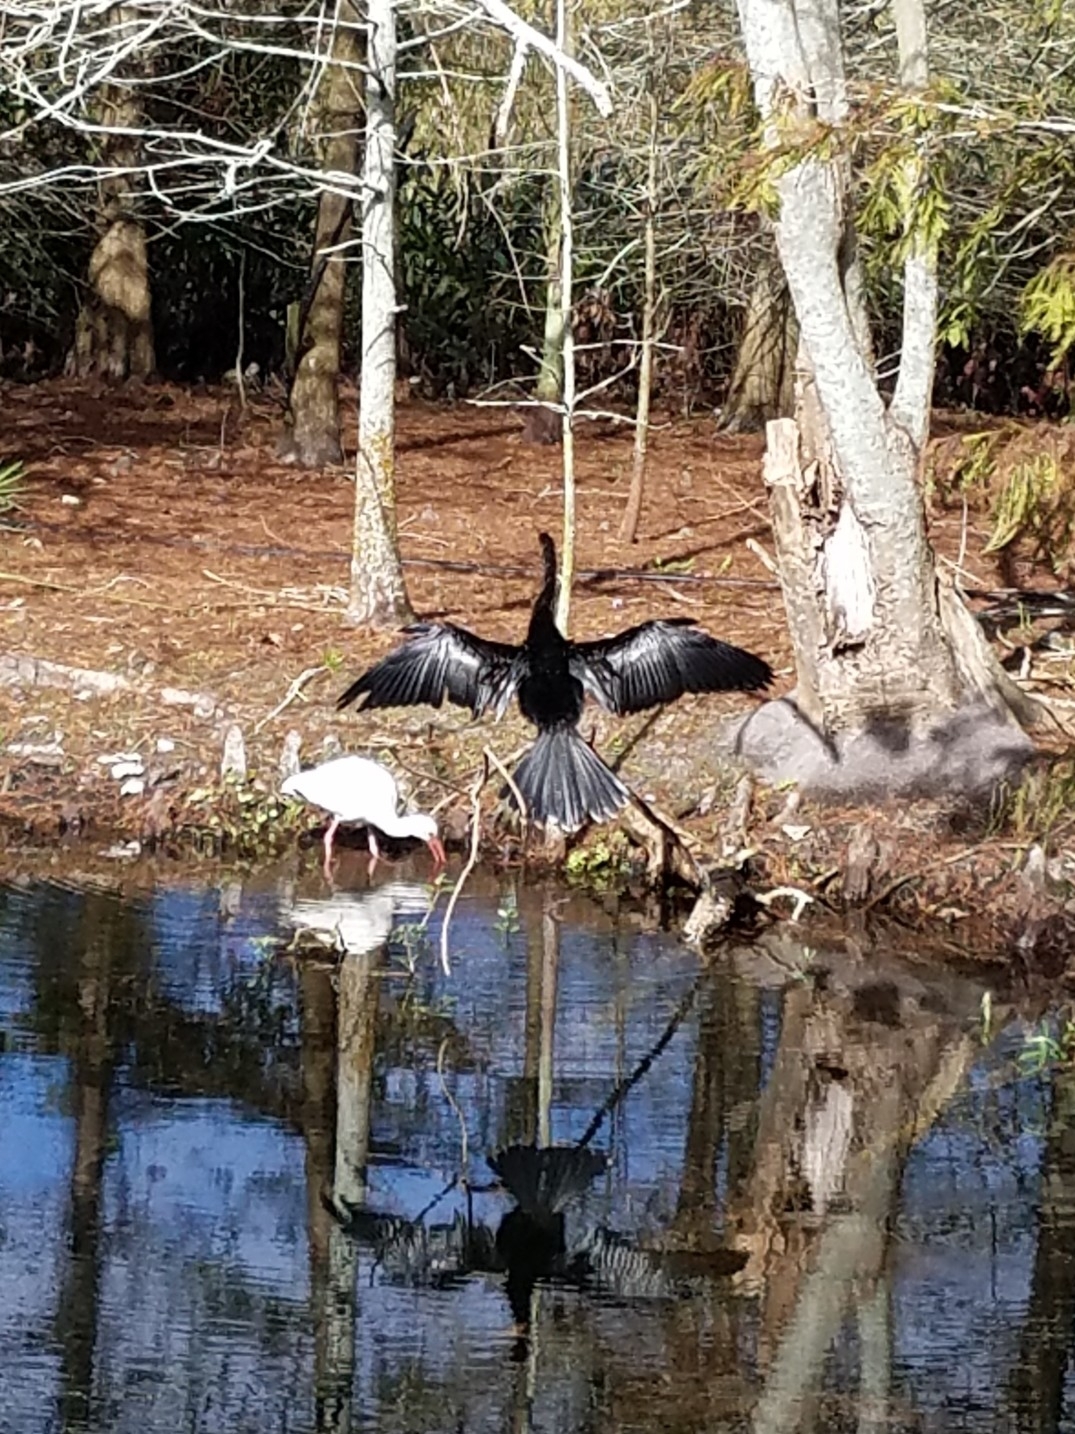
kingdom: Animalia
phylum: Chordata
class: Aves
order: Suliformes
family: Anhingidae
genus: Anhinga
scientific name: Anhinga anhinga
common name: Anhinga
